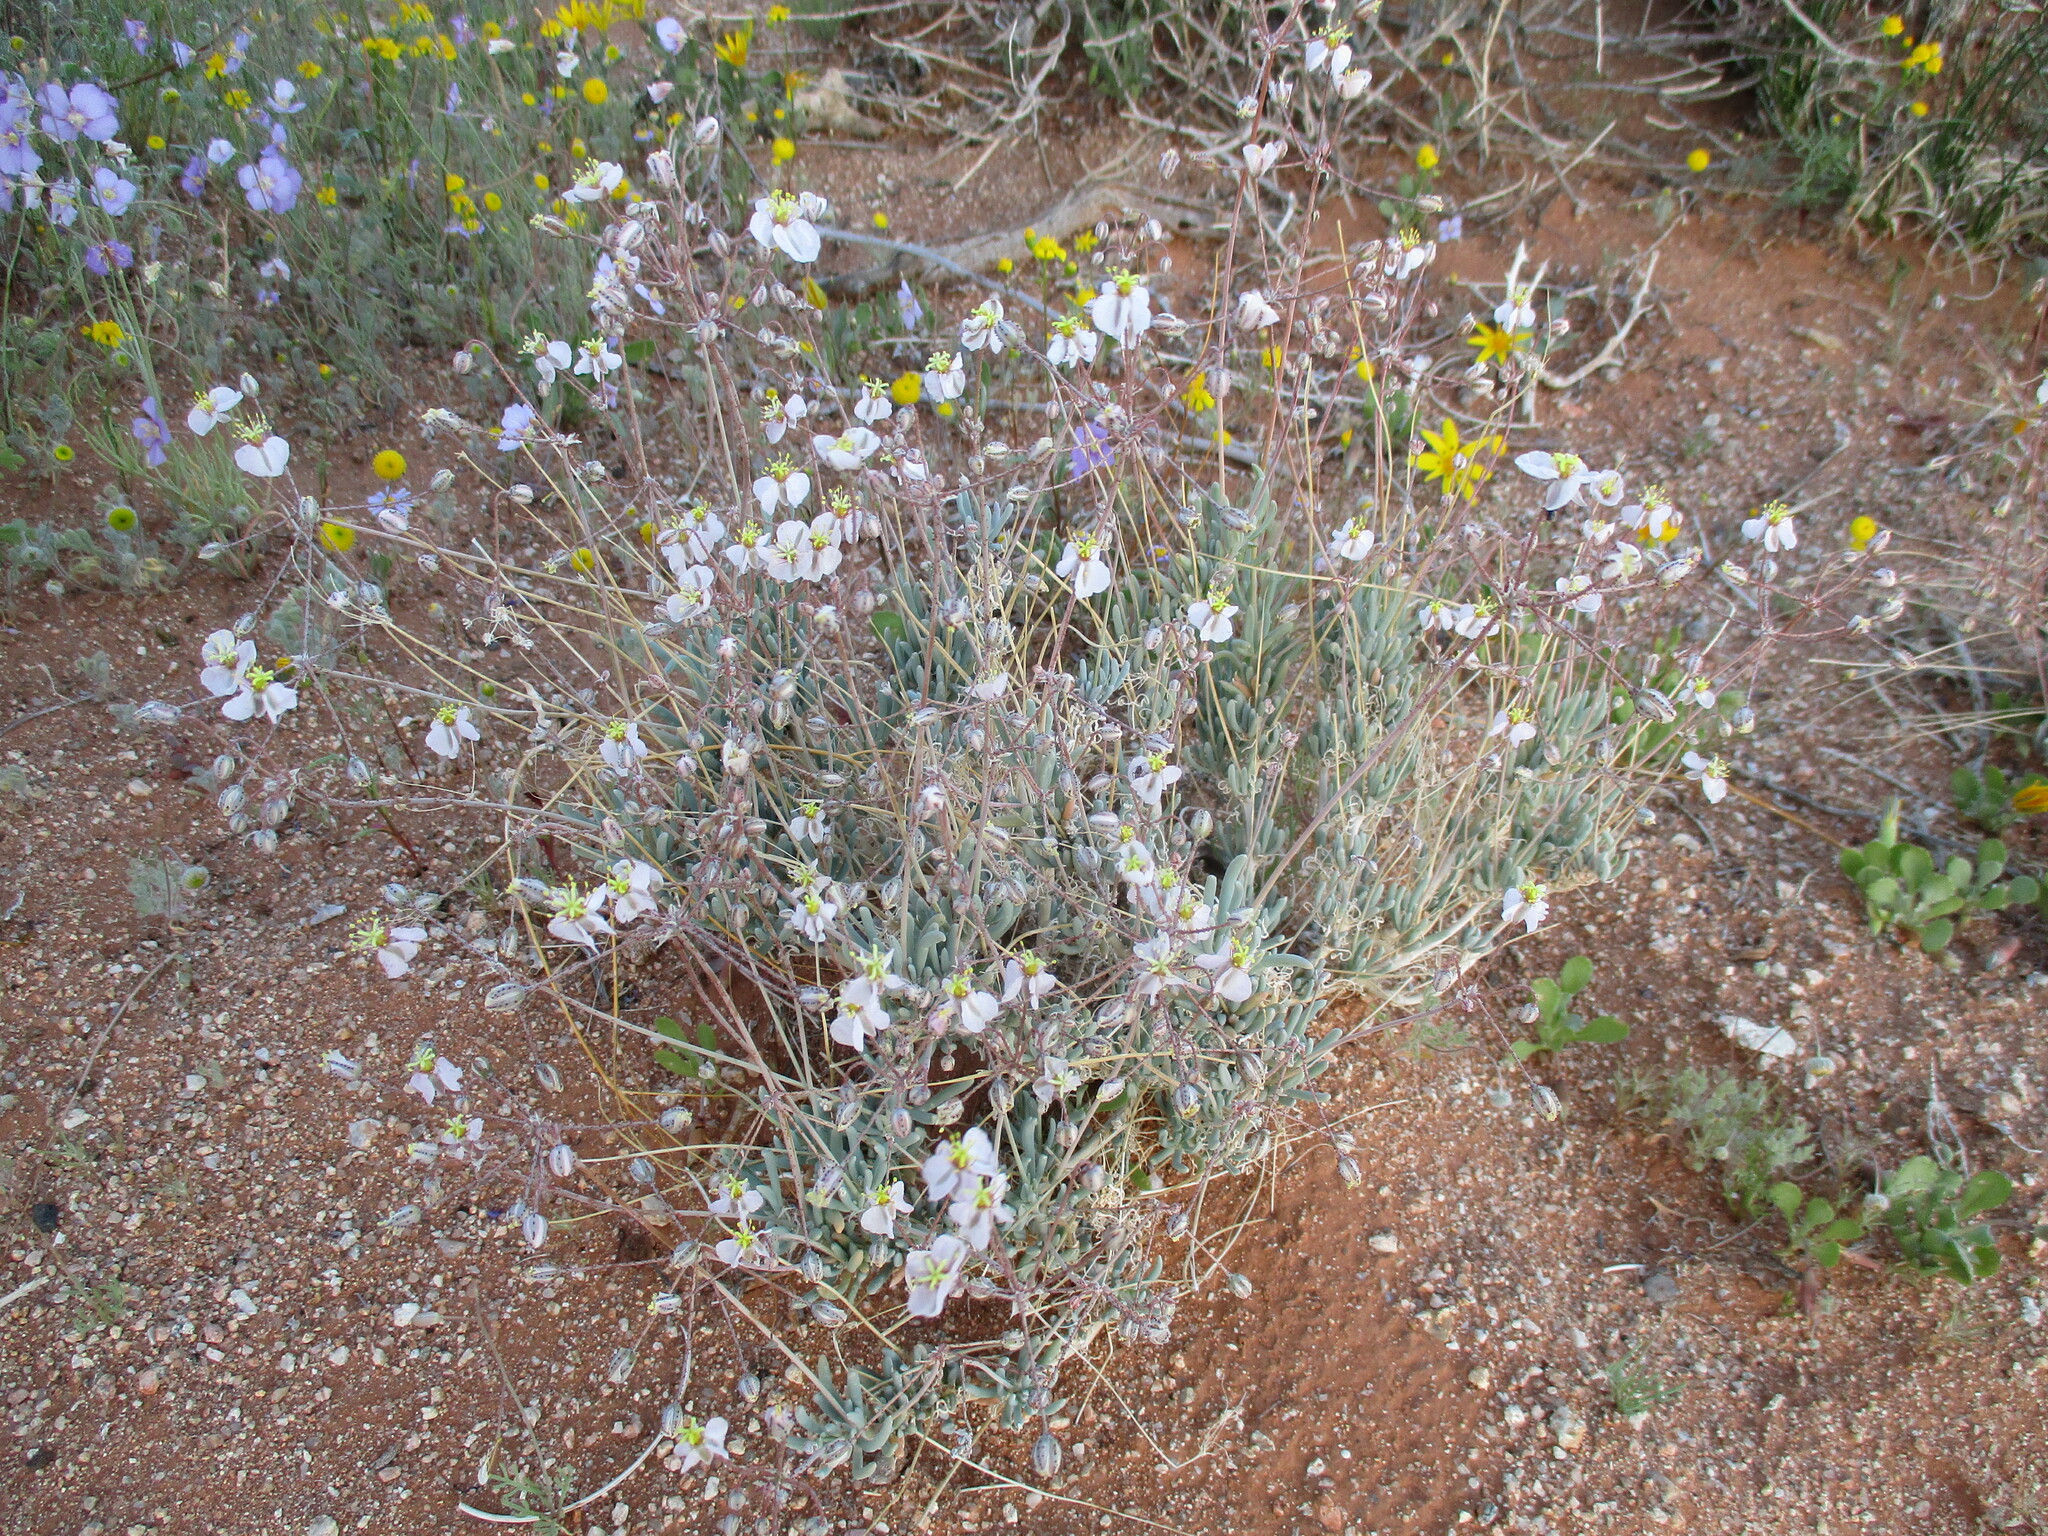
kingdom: Plantae
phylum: Tracheophyta
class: Magnoliopsida
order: Caryophyllales
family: Kewaceae
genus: Kewa
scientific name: Kewa salsoloides
